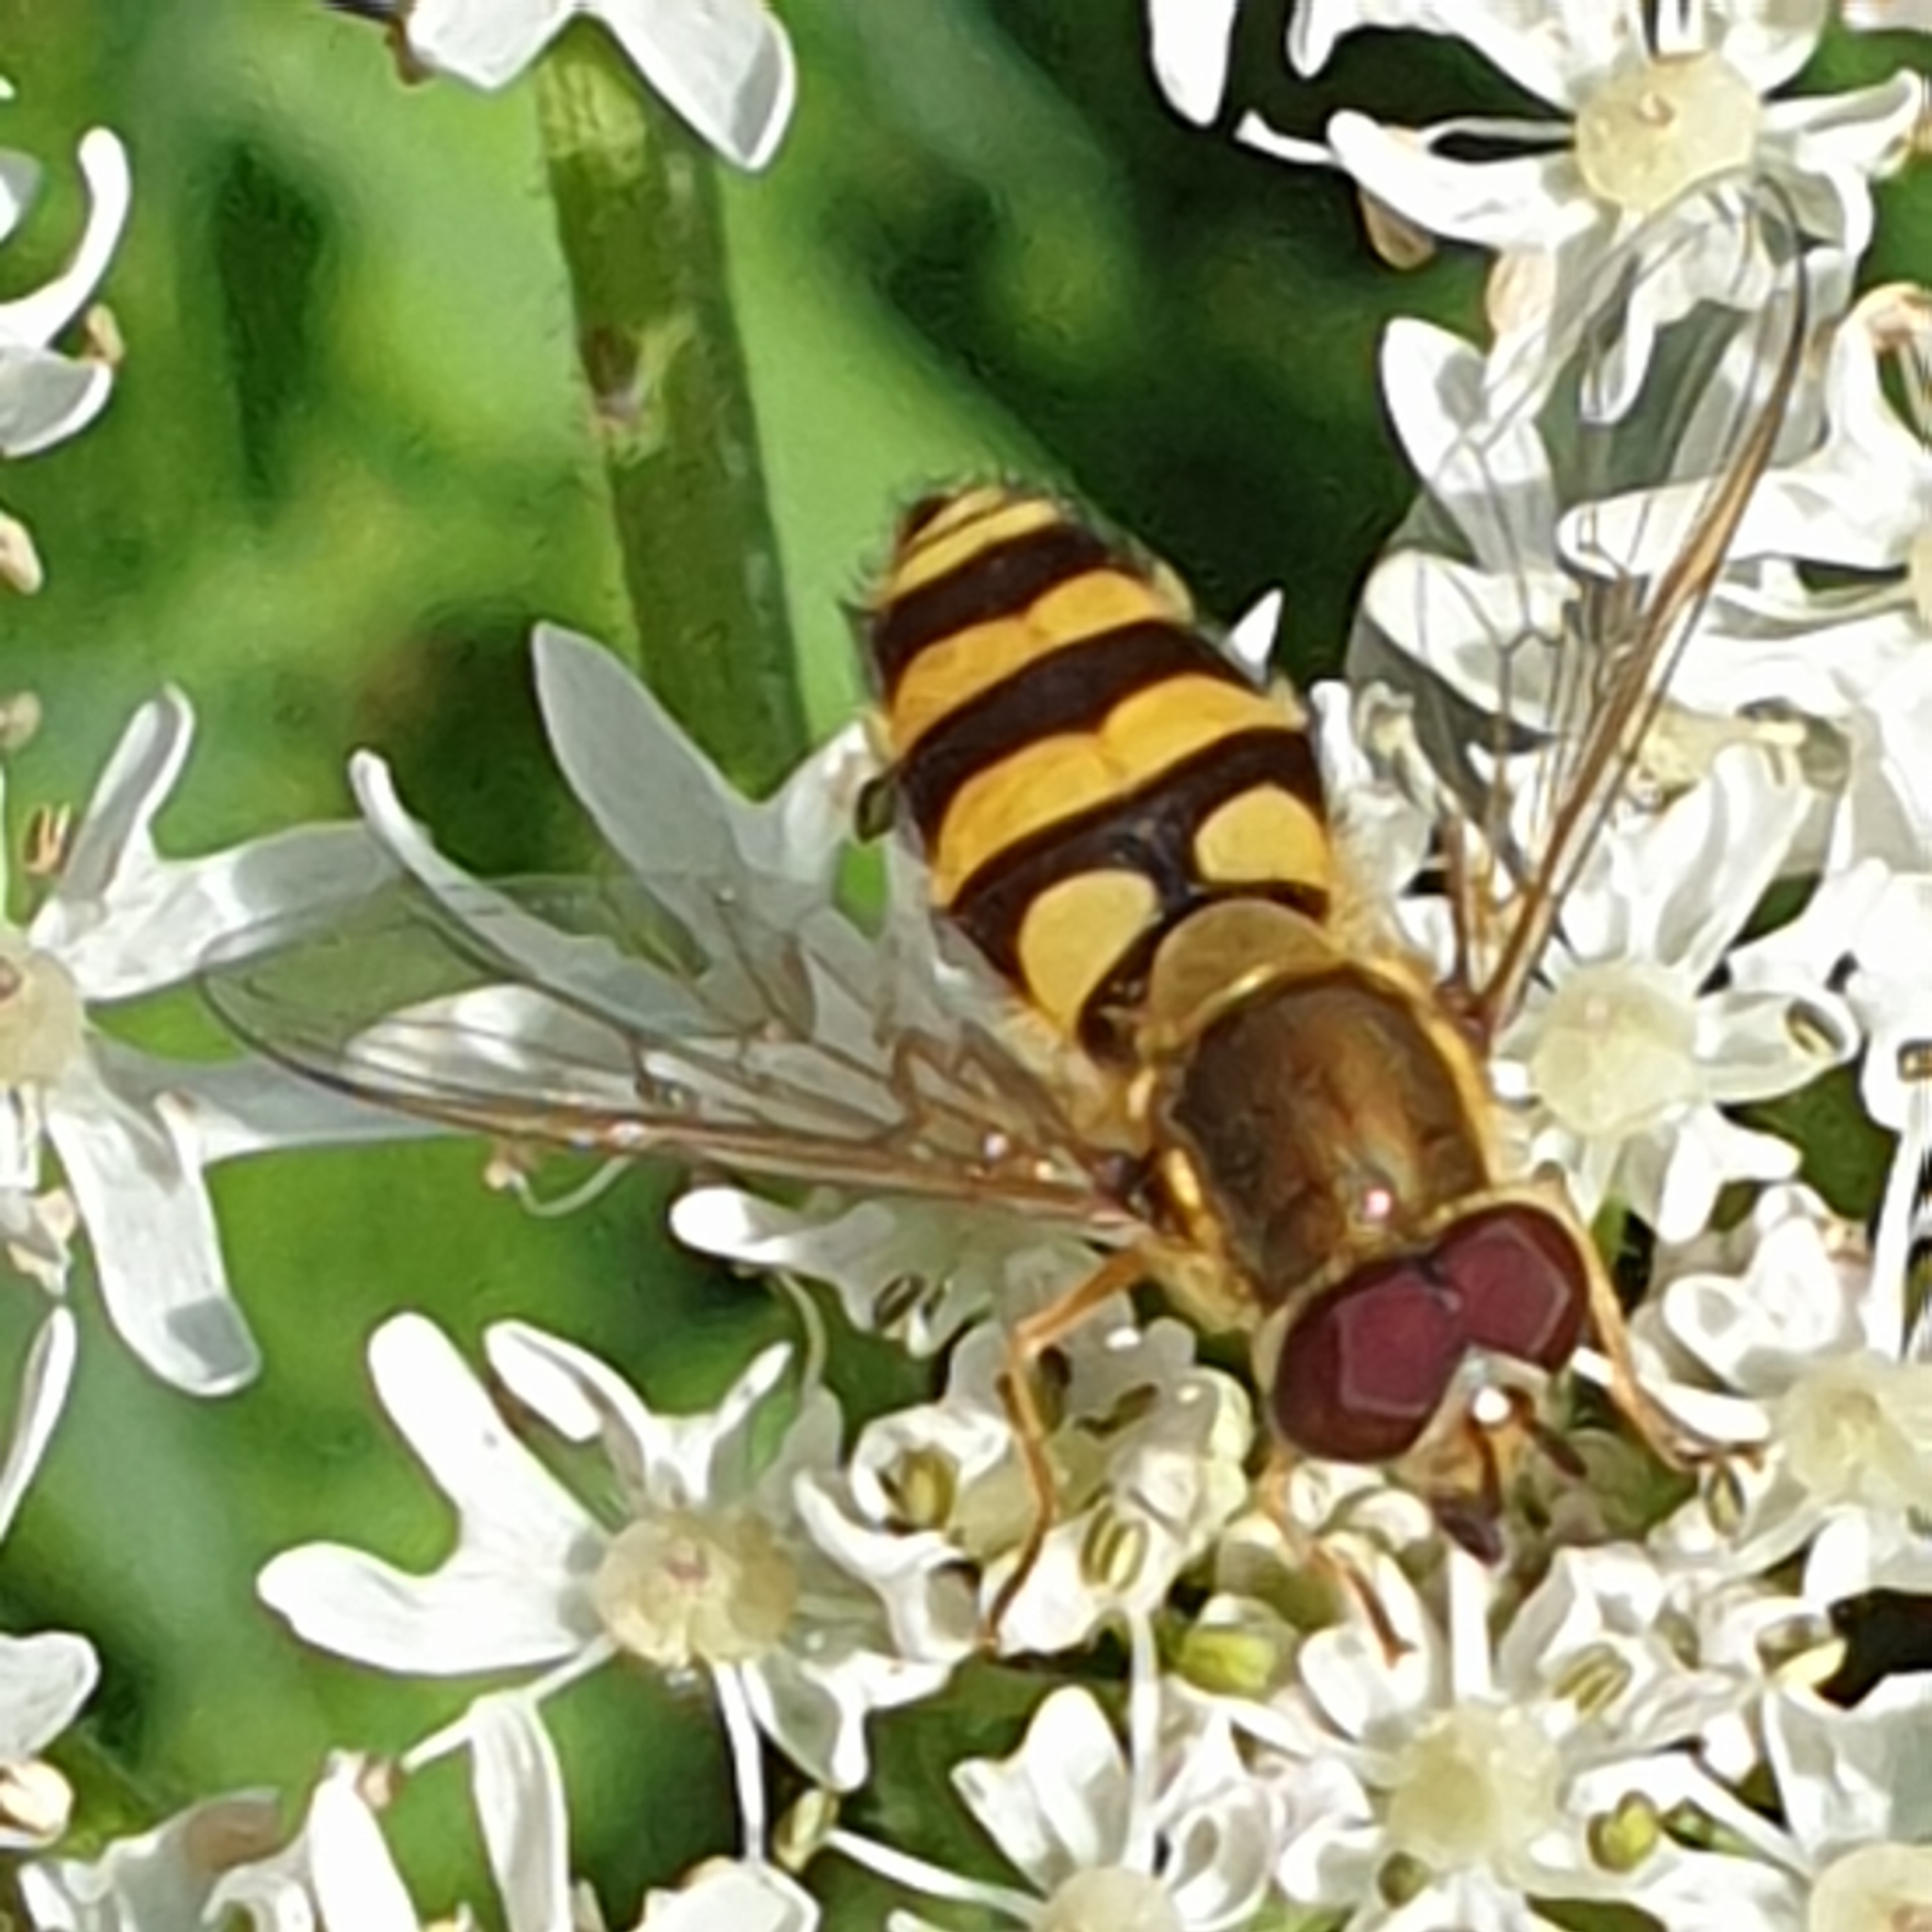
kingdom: Animalia
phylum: Arthropoda
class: Insecta
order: Diptera
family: Syrphidae
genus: Syrphus
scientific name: Syrphus
